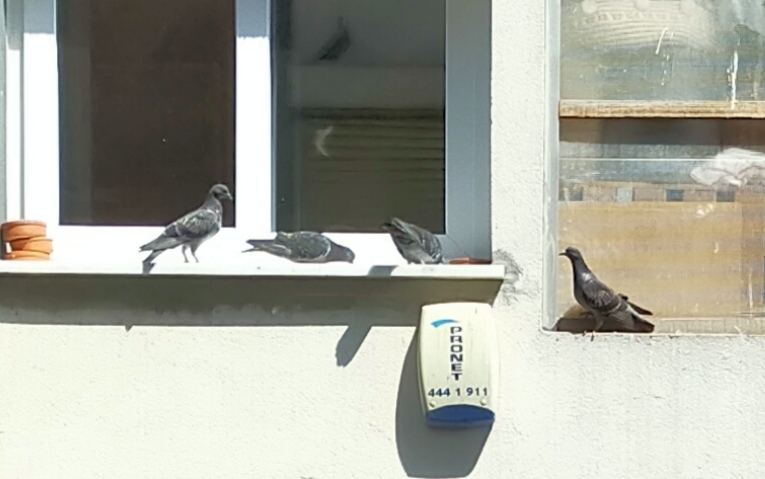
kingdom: Animalia
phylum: Chordata
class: Aves
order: Columbiformes
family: Columbidae
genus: Columba
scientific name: Columba livia
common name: Rock pigeon
